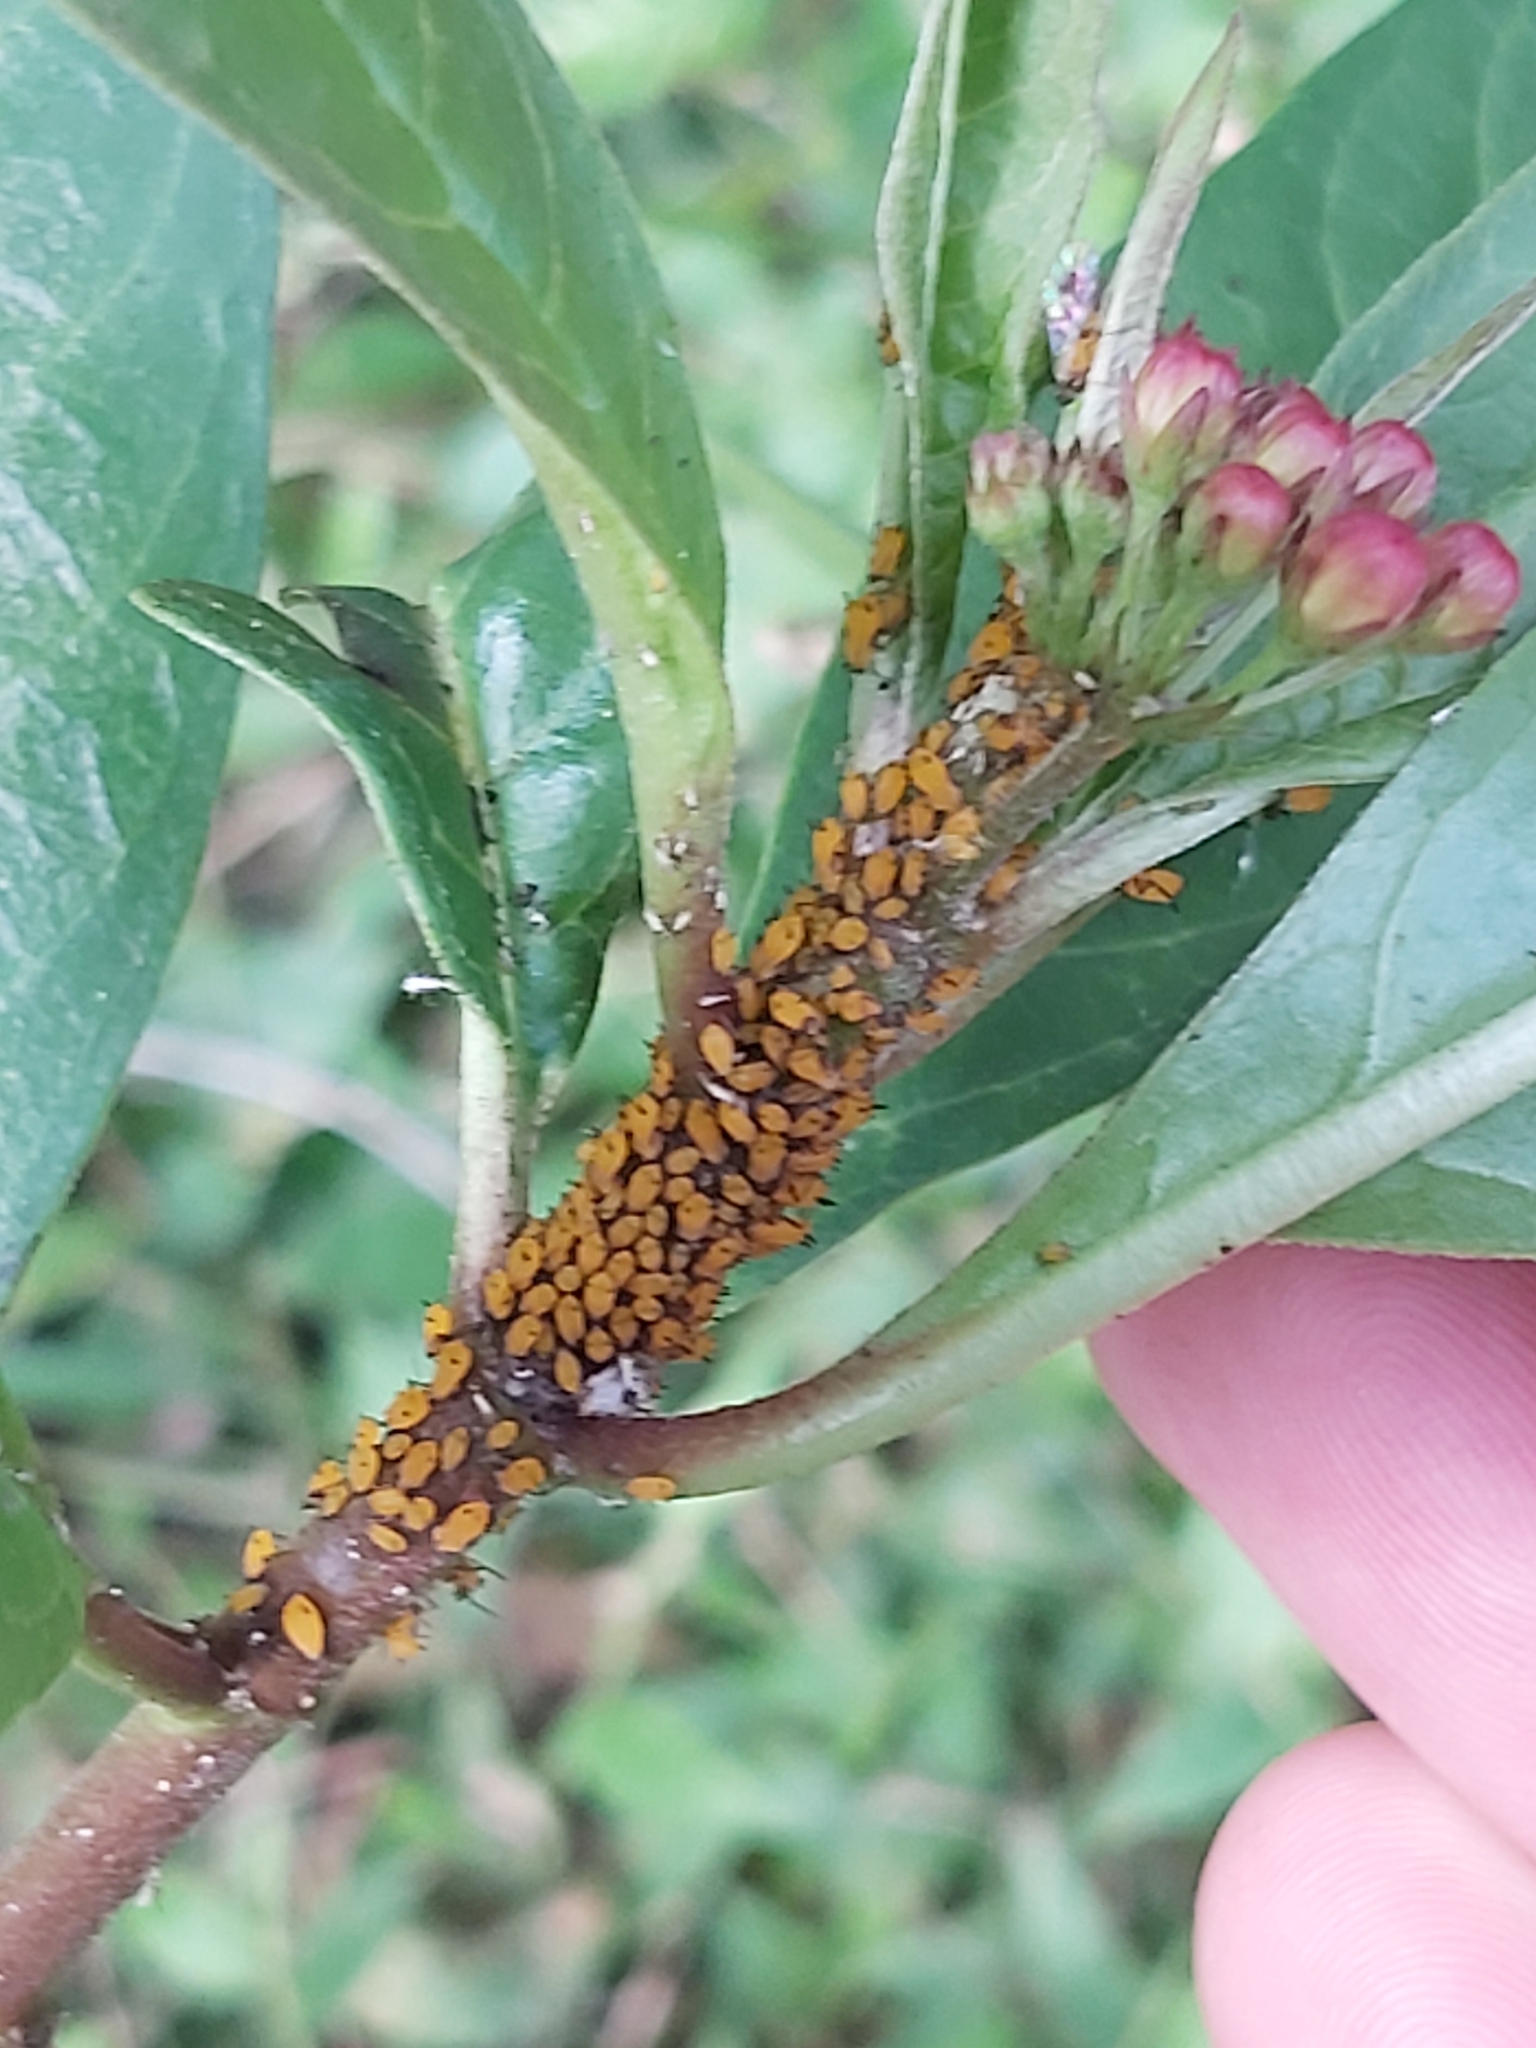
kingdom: Animalia
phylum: Arthropoda
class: Insecta
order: Hemiptera
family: Aphididae
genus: Aphis
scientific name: Aphis nerii
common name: Oleander aphid
